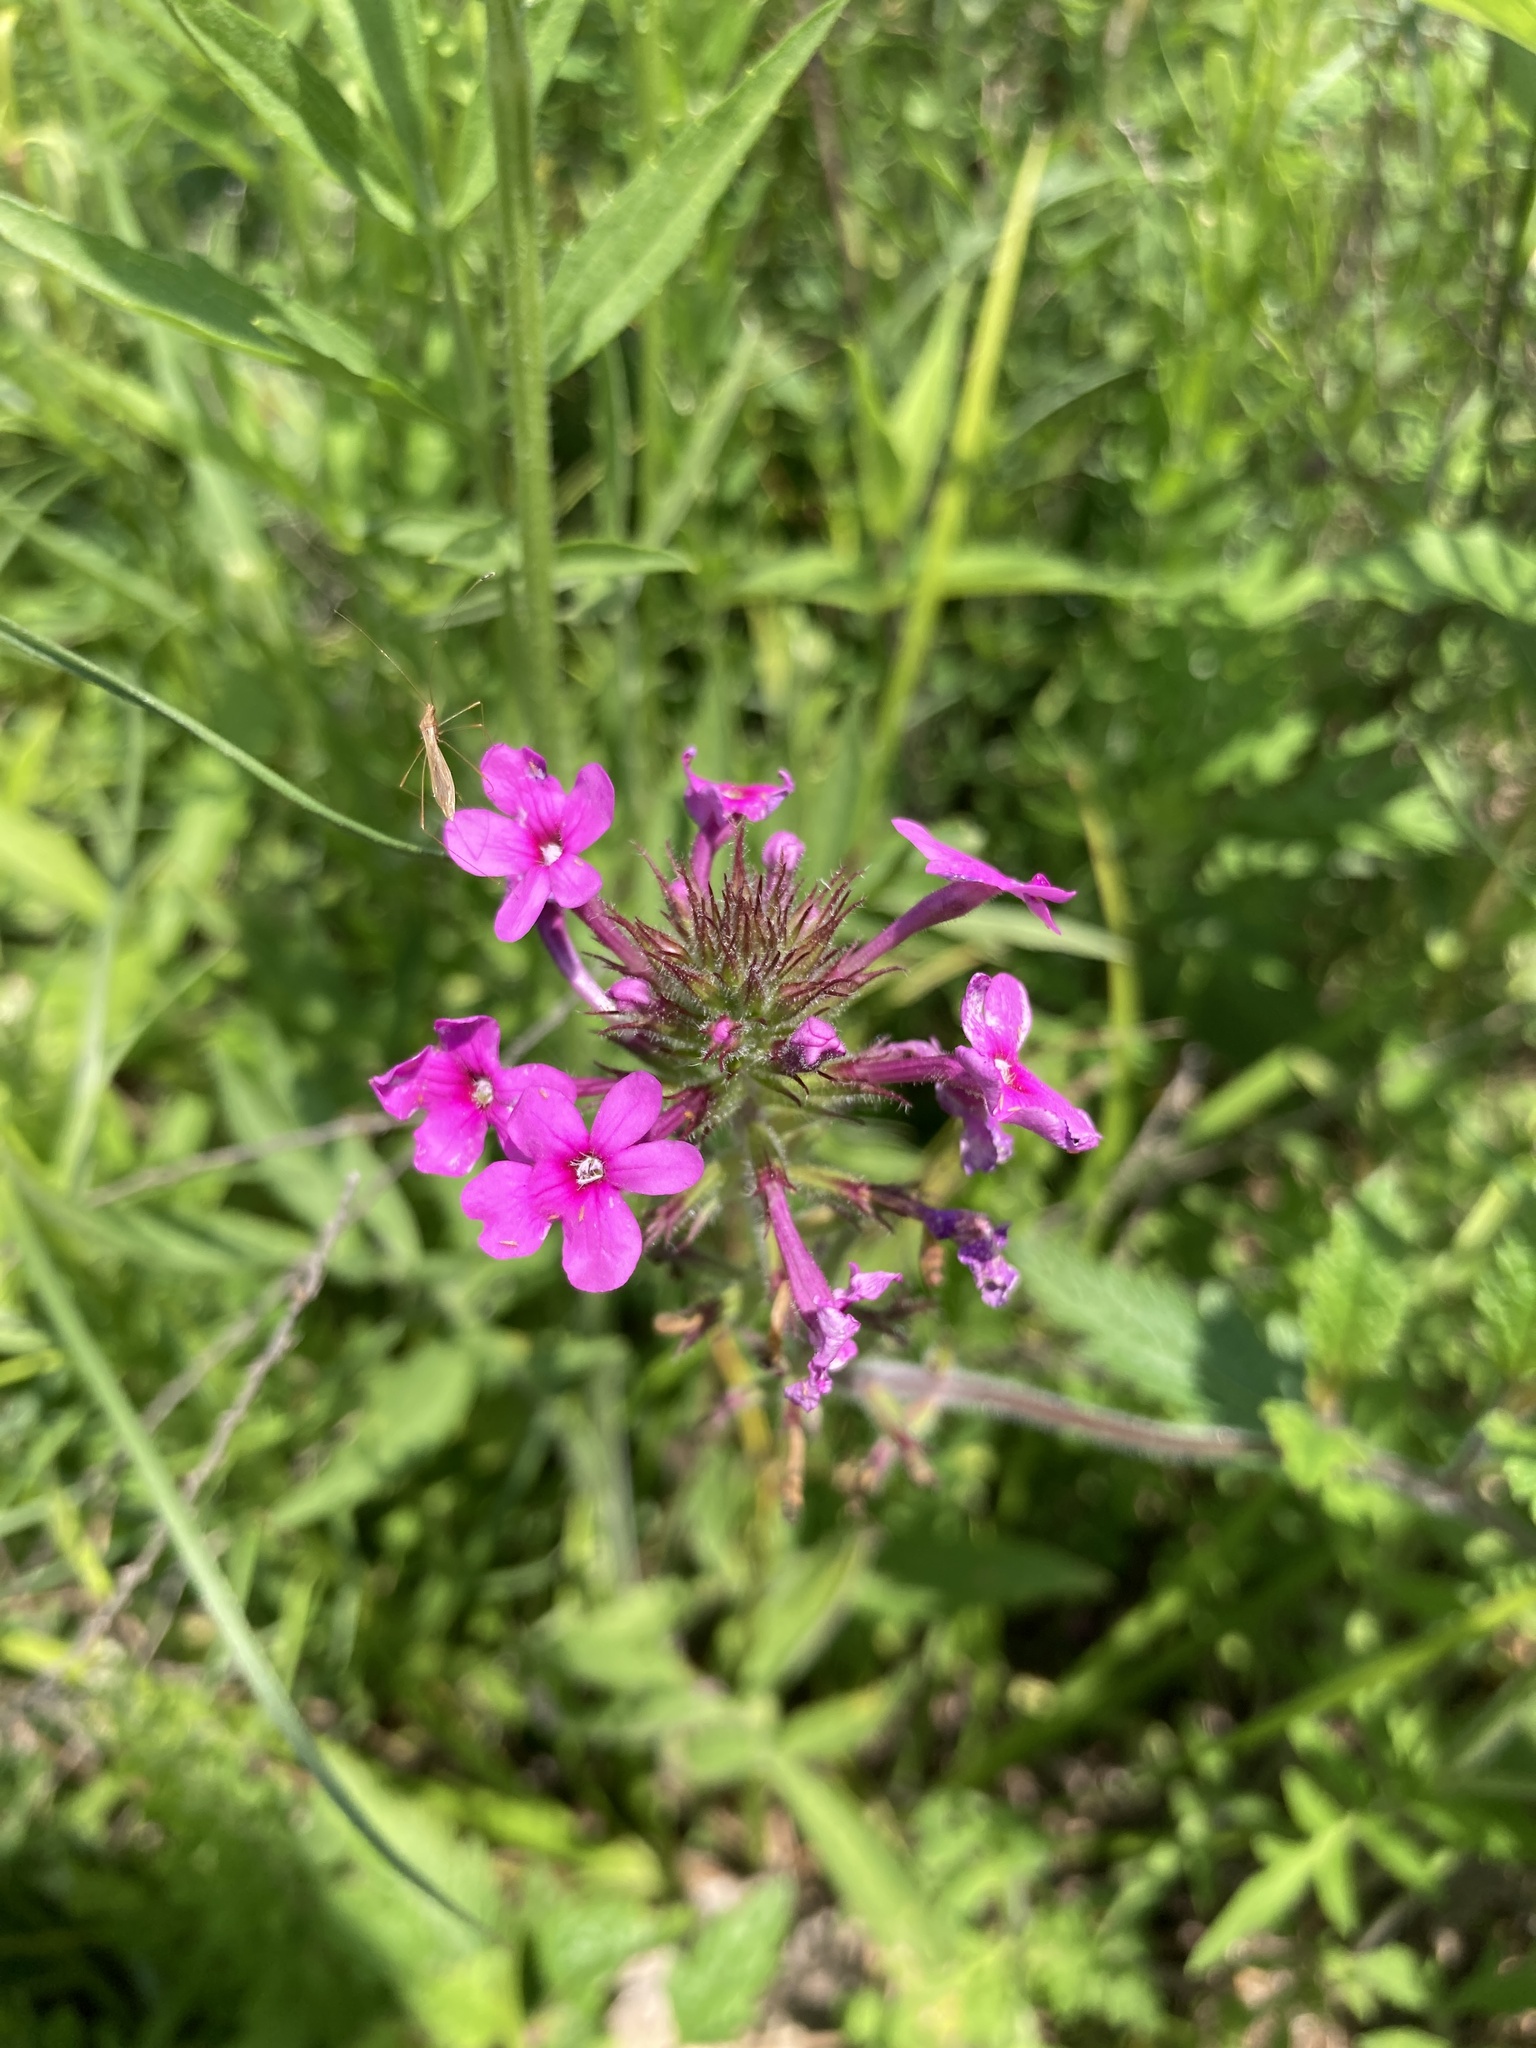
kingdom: Plantae
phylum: Tracheophyta
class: Magnoliopsida
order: Lamiales
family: Verbenaceae
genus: Verbena
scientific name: Verbena canadensis
